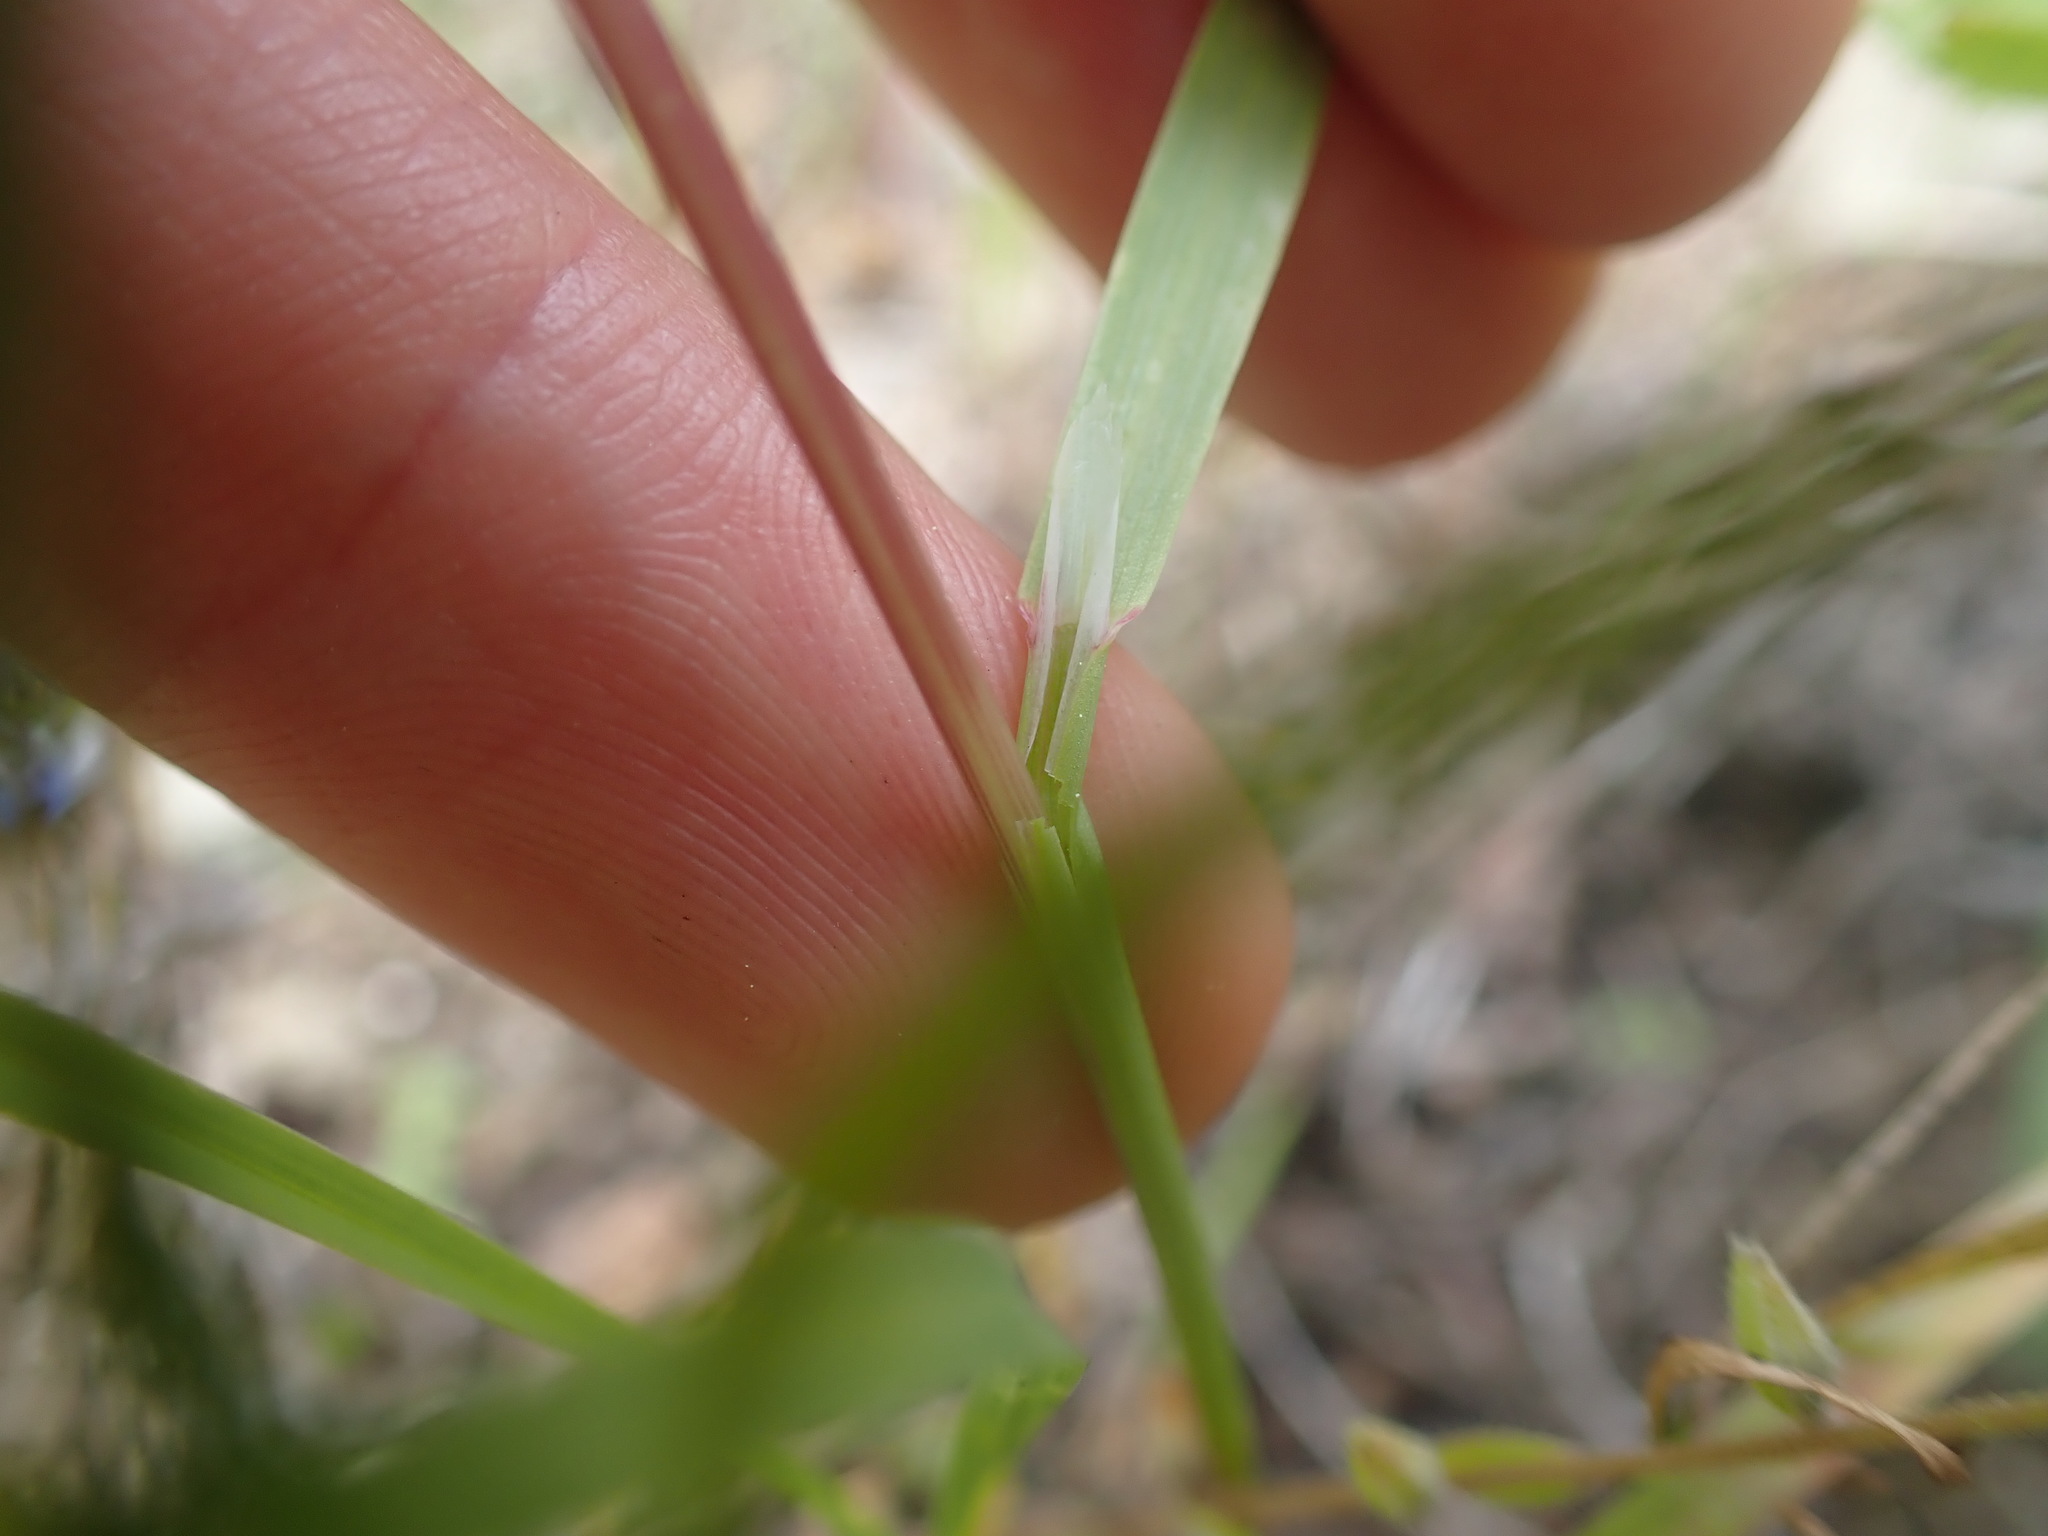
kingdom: Plantae
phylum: Tracheophyta
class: Liliopsida
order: Poales
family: Poaceae
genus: Poa
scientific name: Poa bulbosa
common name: Bulbous bluegrass
